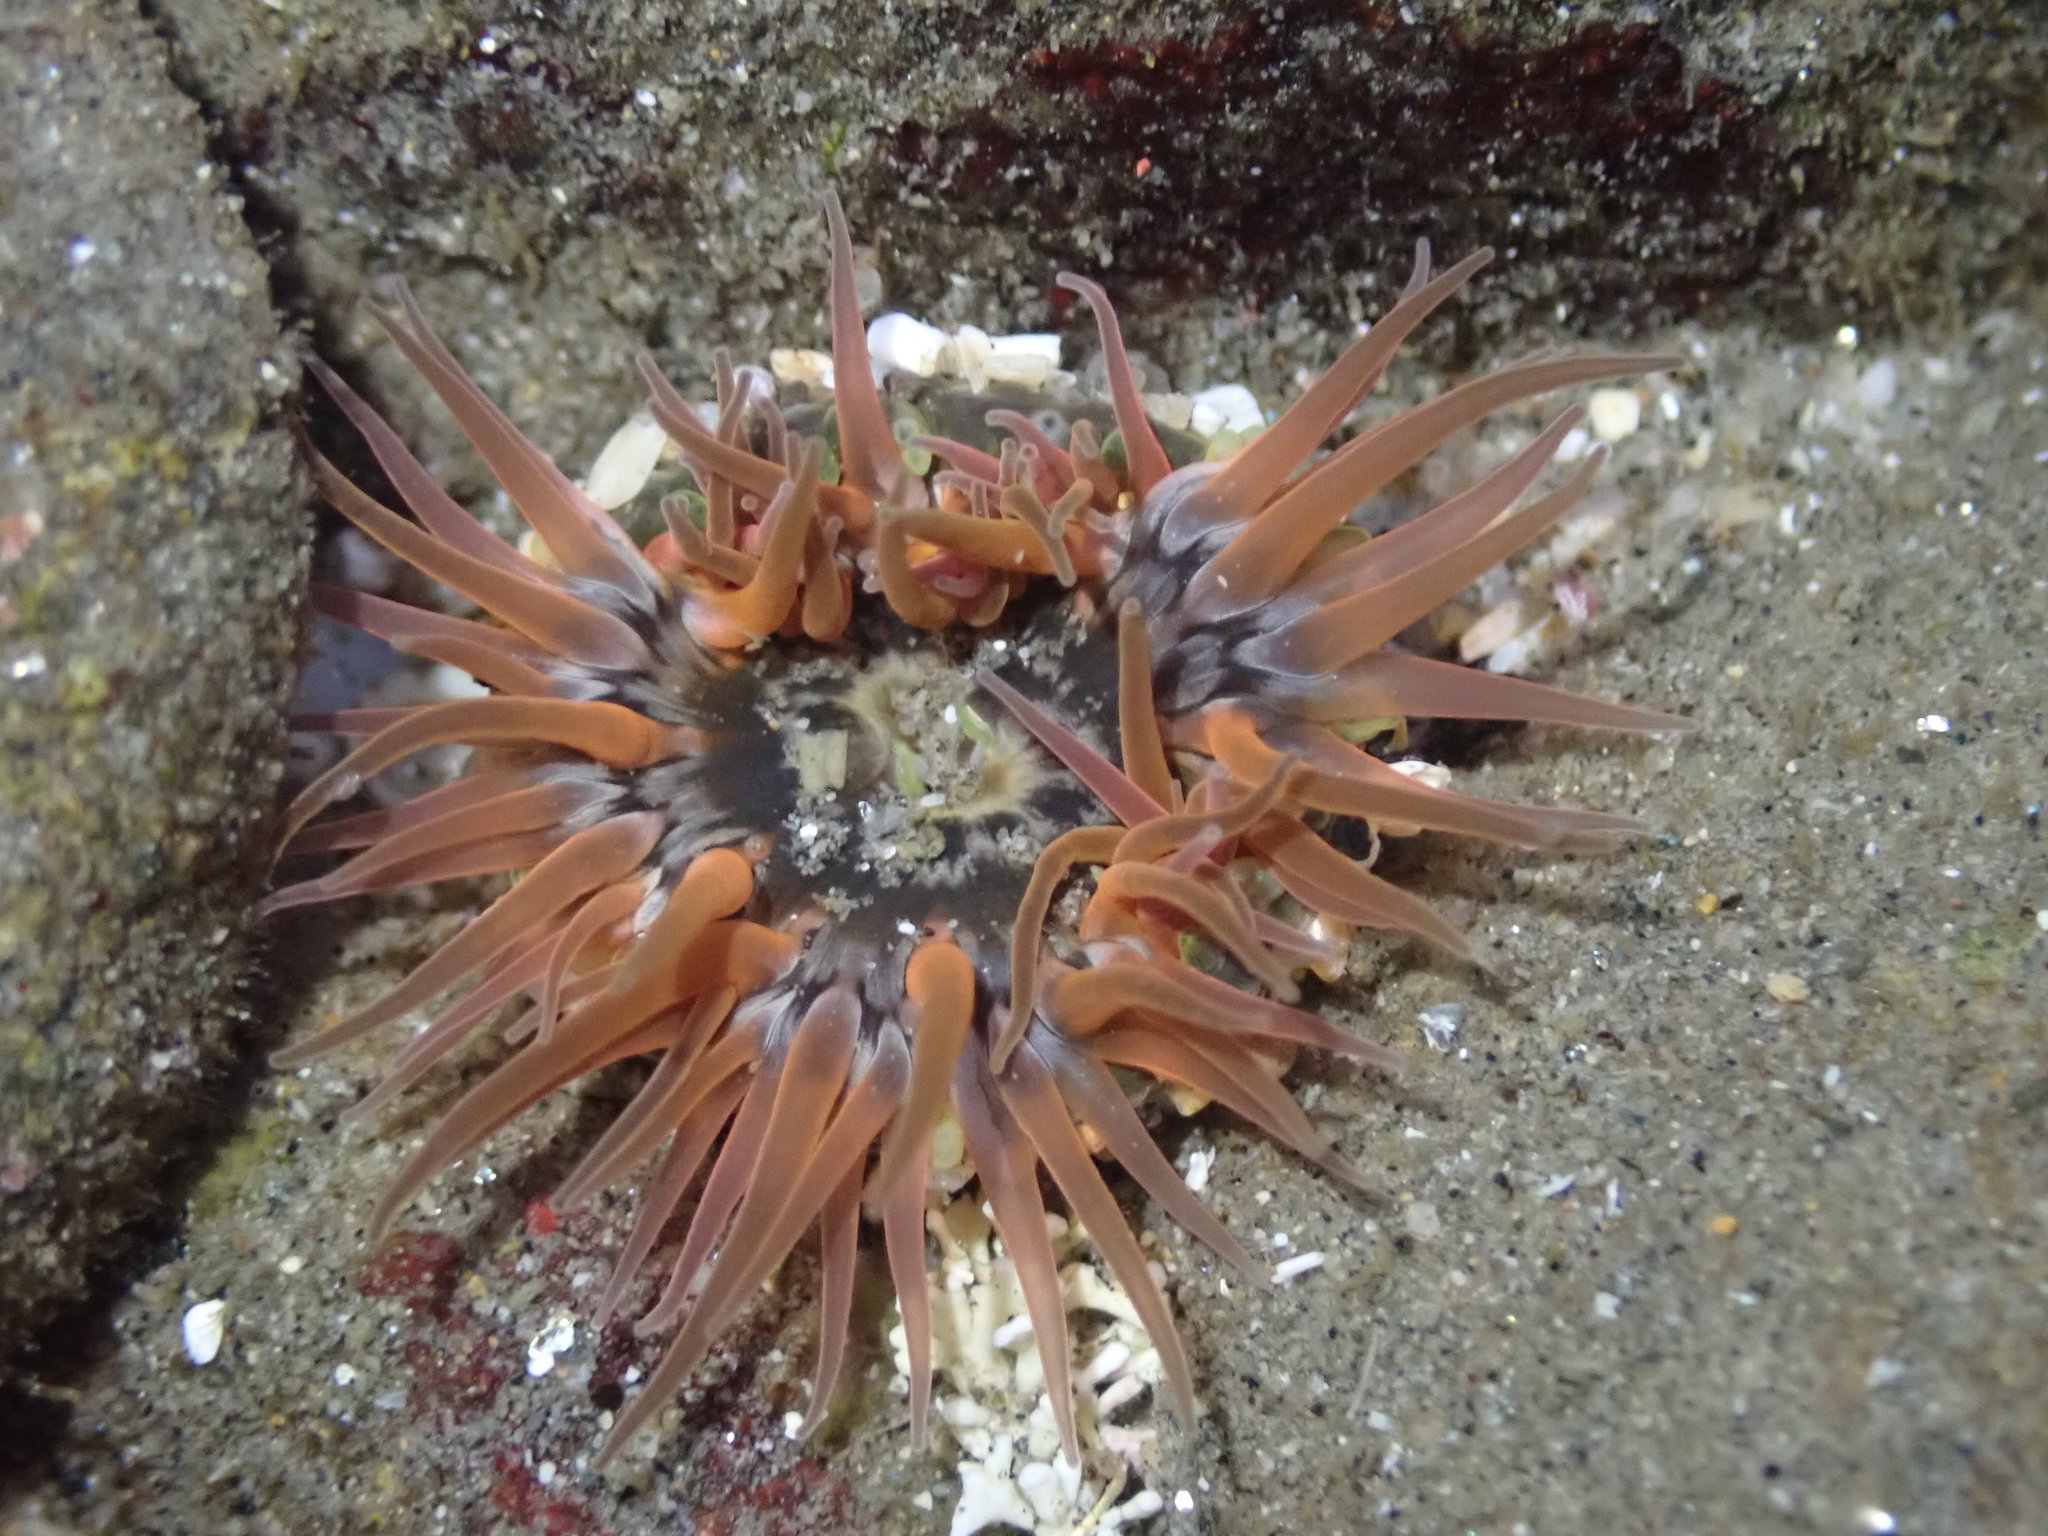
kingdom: Animalia
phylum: Cnidaria
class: Anthozoa
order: Actiniaria
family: Actiniidae
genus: Anthopleura
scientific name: Anthopleura artemisia
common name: Buried sea anemone
